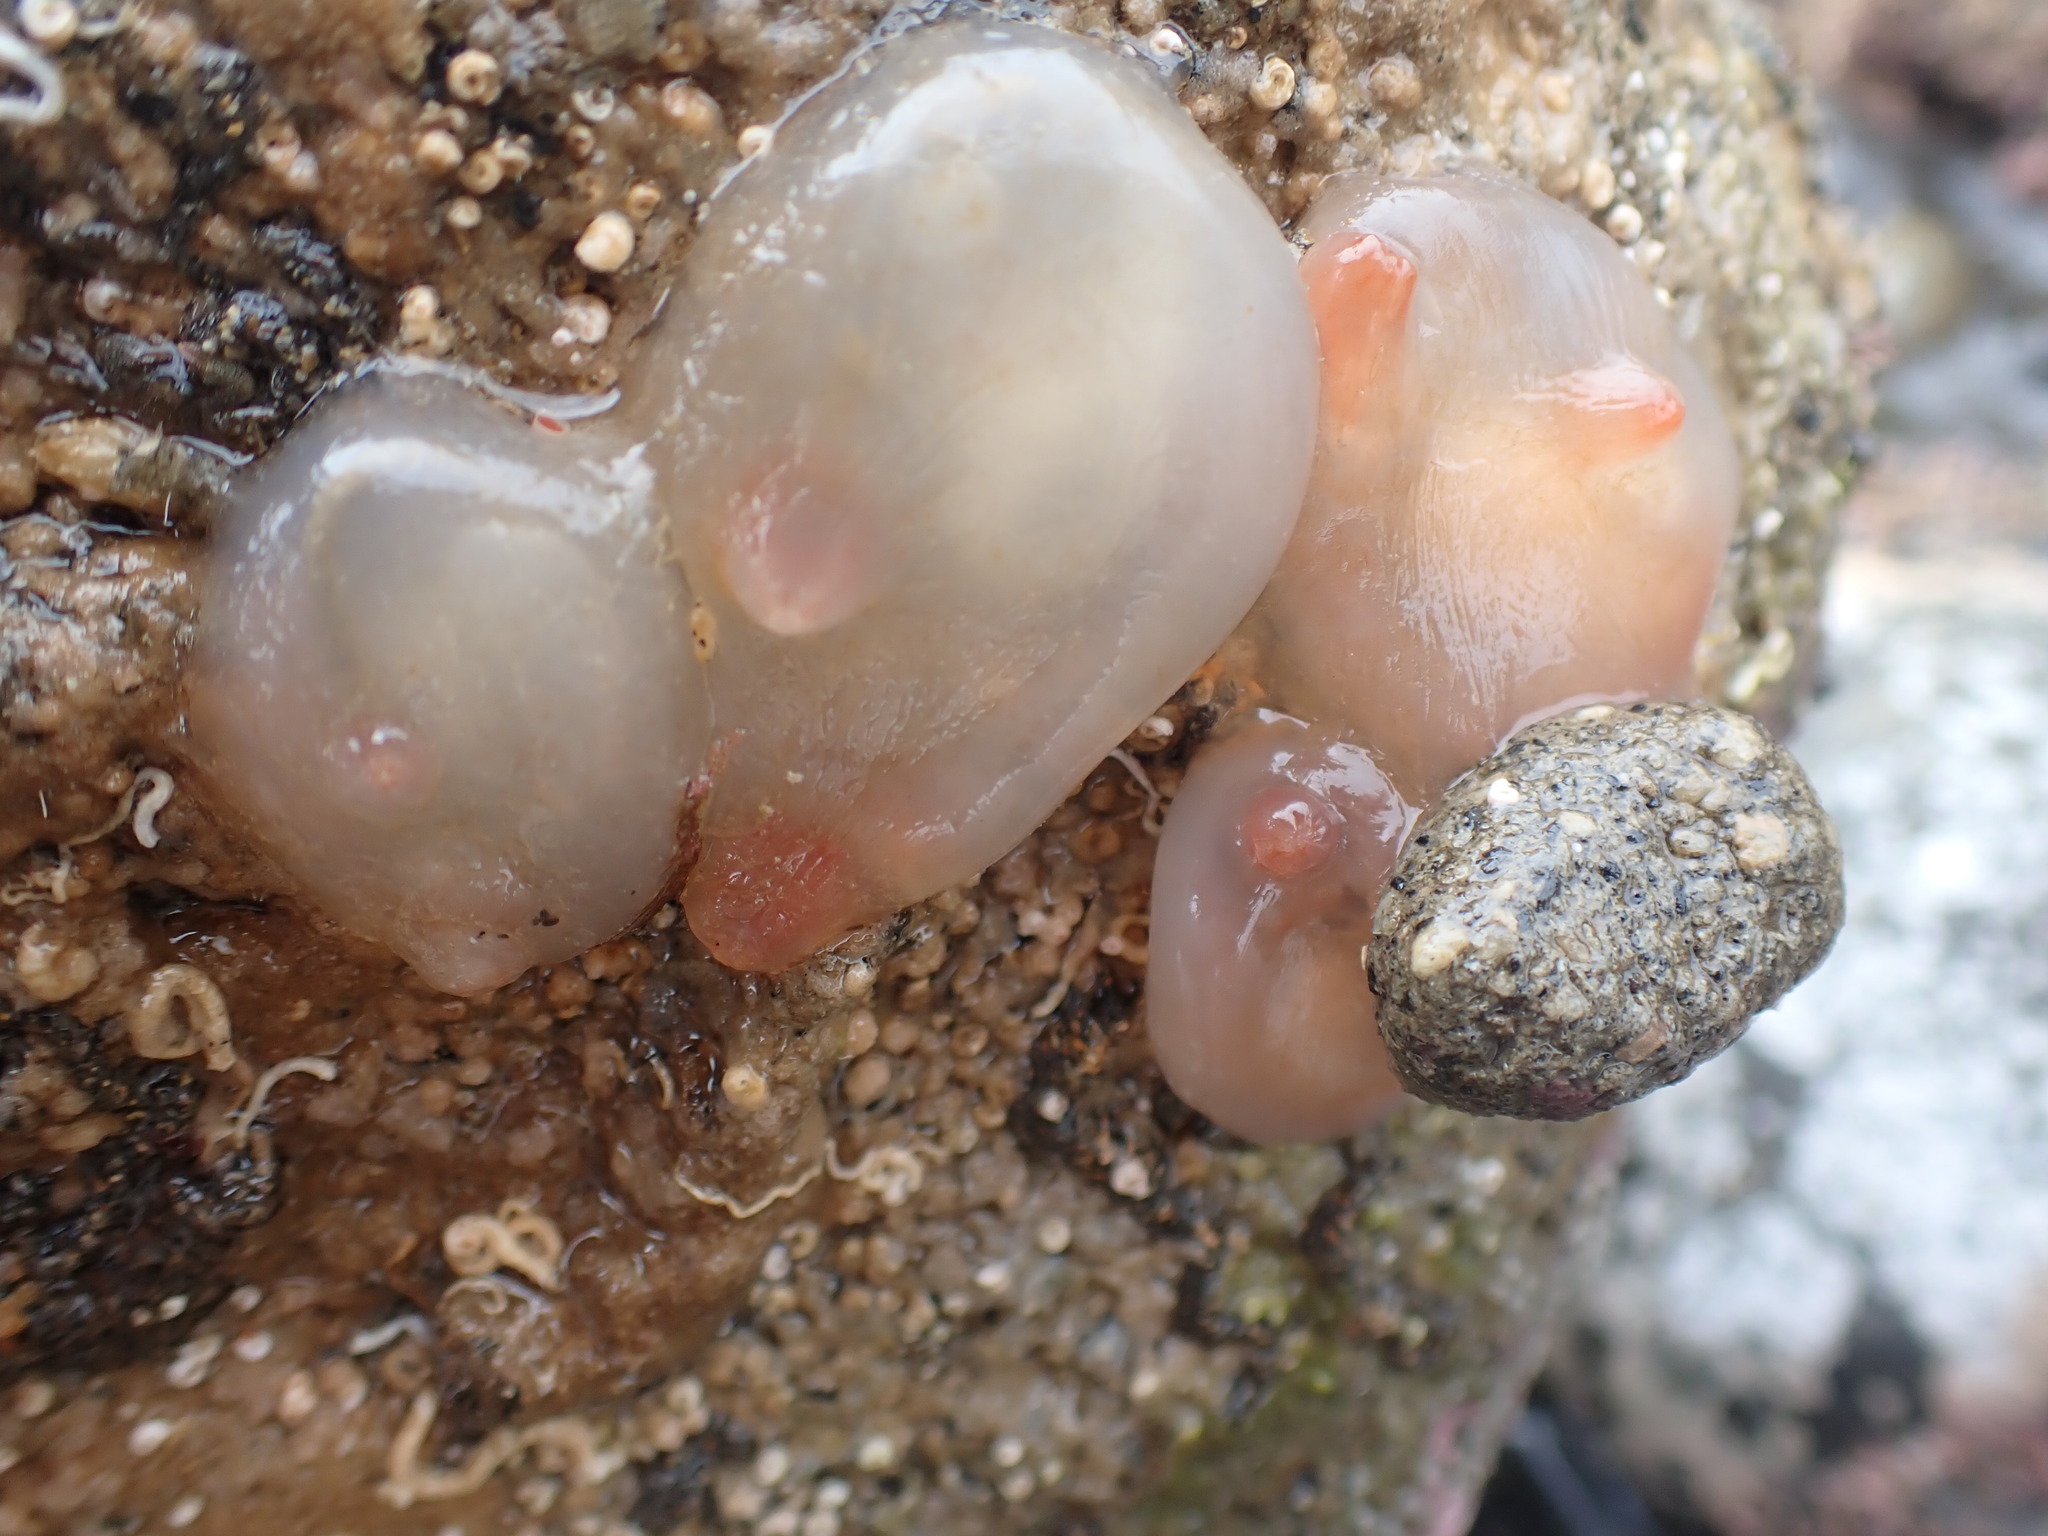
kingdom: Animalia
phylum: Chordata
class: Ascidiacea
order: Phlebobranchia
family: Corellidae
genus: Corella
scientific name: Corella eumyota
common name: Orange-tipped sea squirt
